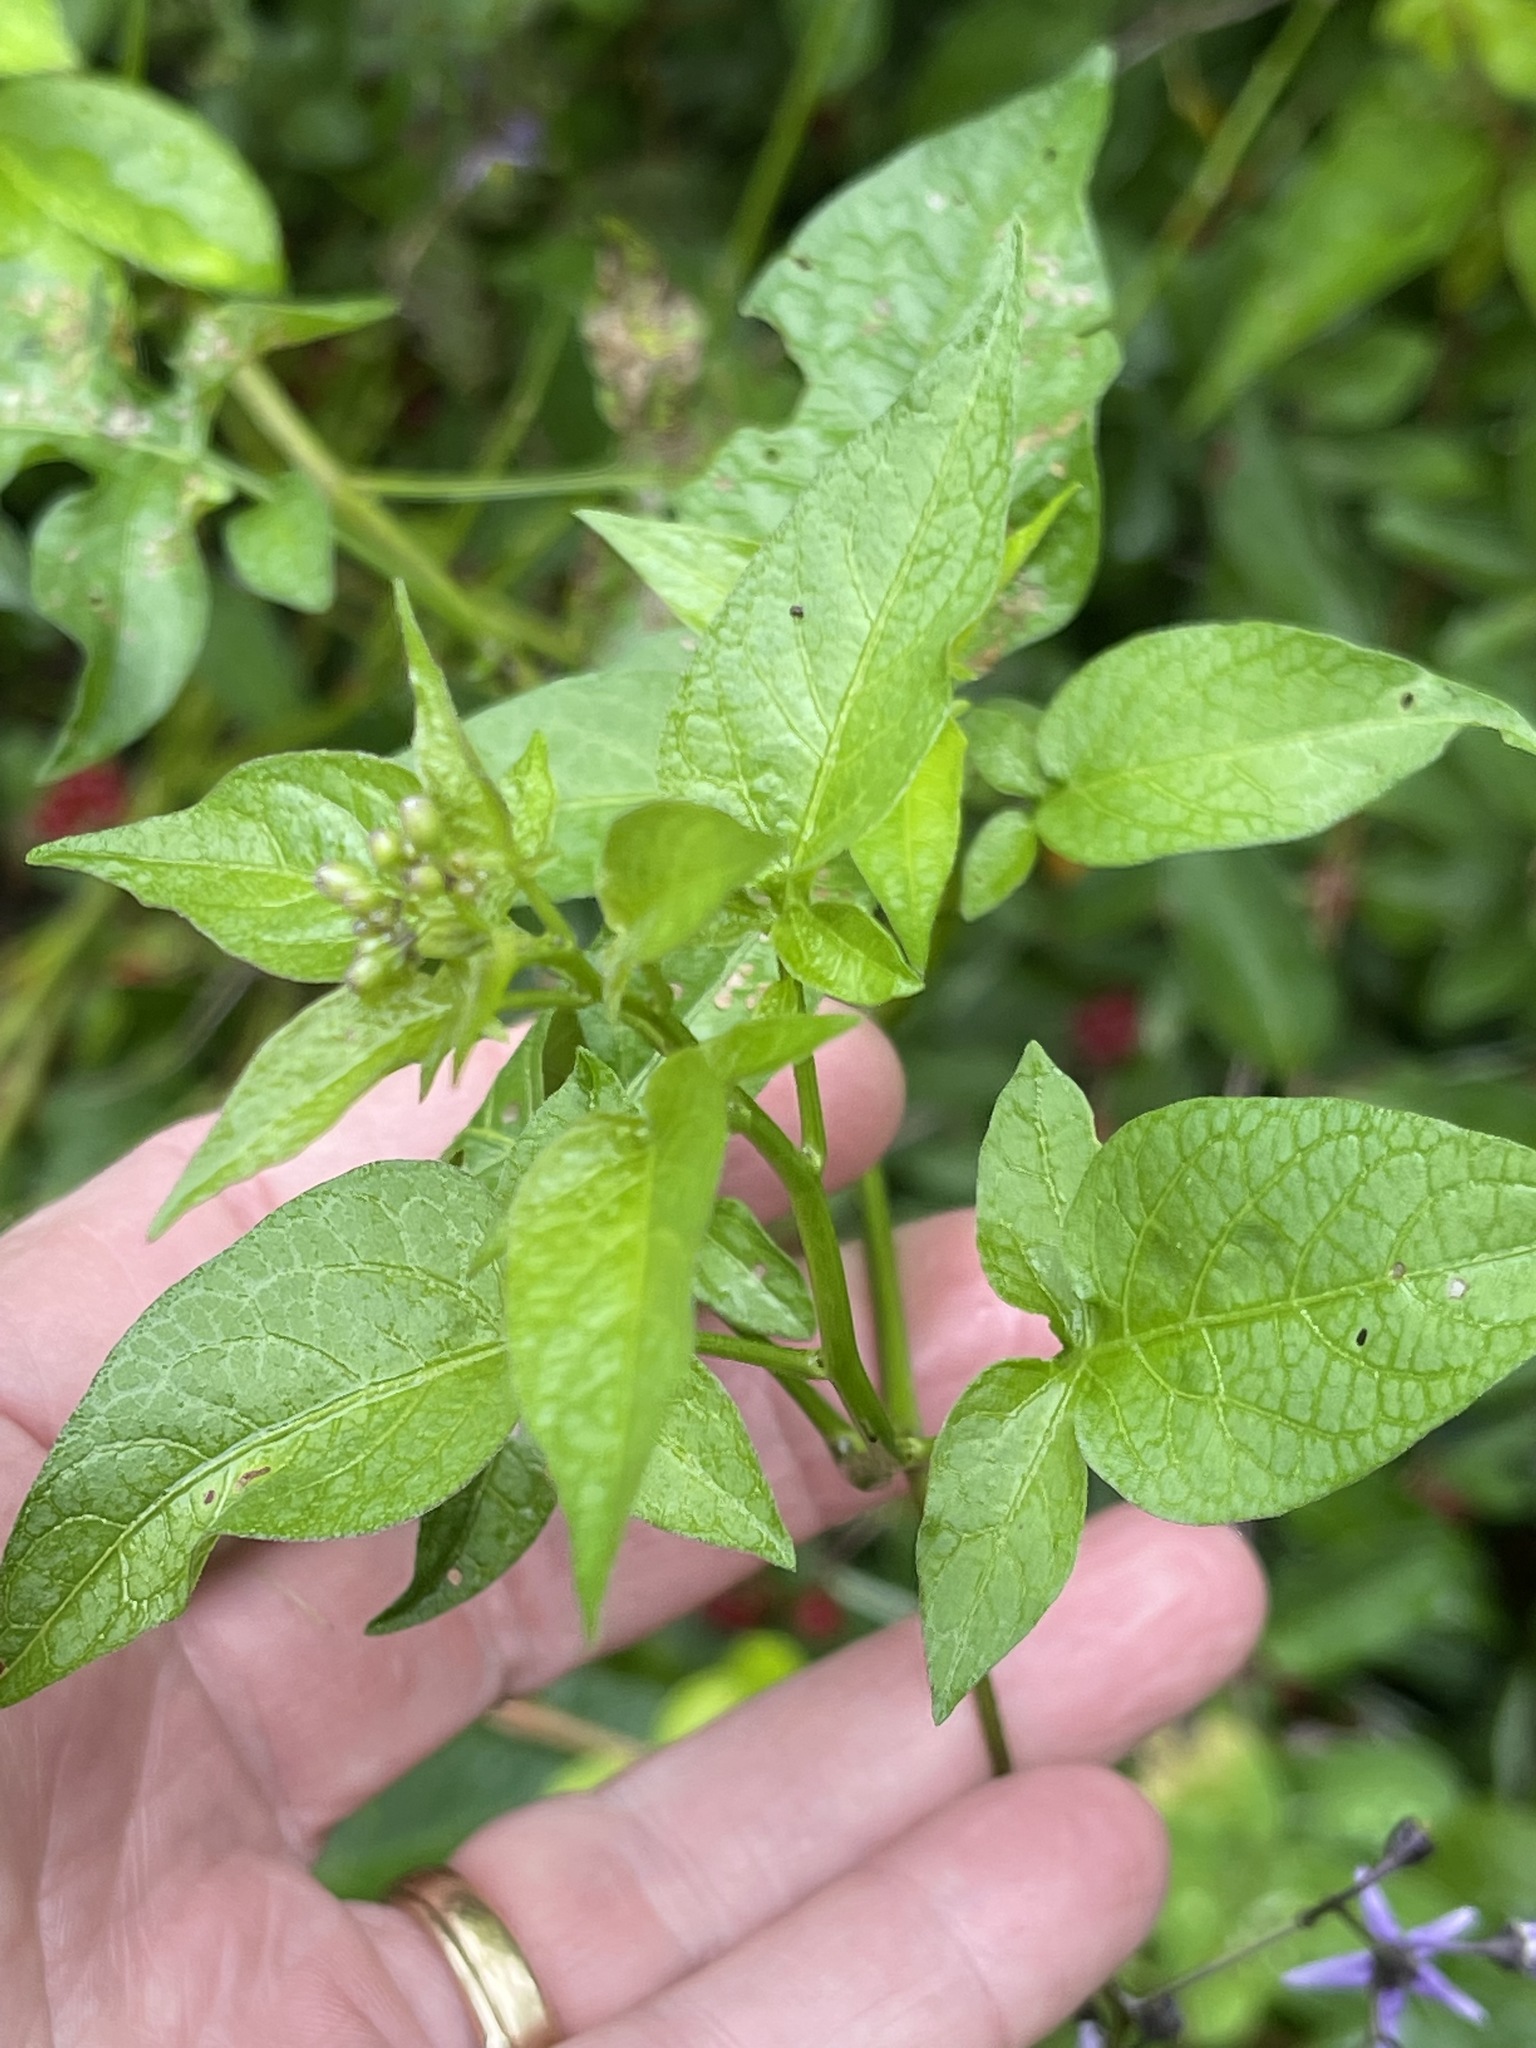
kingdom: Plantae
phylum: Tracheophyta
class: Magnoliopsida
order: Solanales
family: Solanaceae
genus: Solanum
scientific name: Solanum dulcamara
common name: Climbing nightshade
